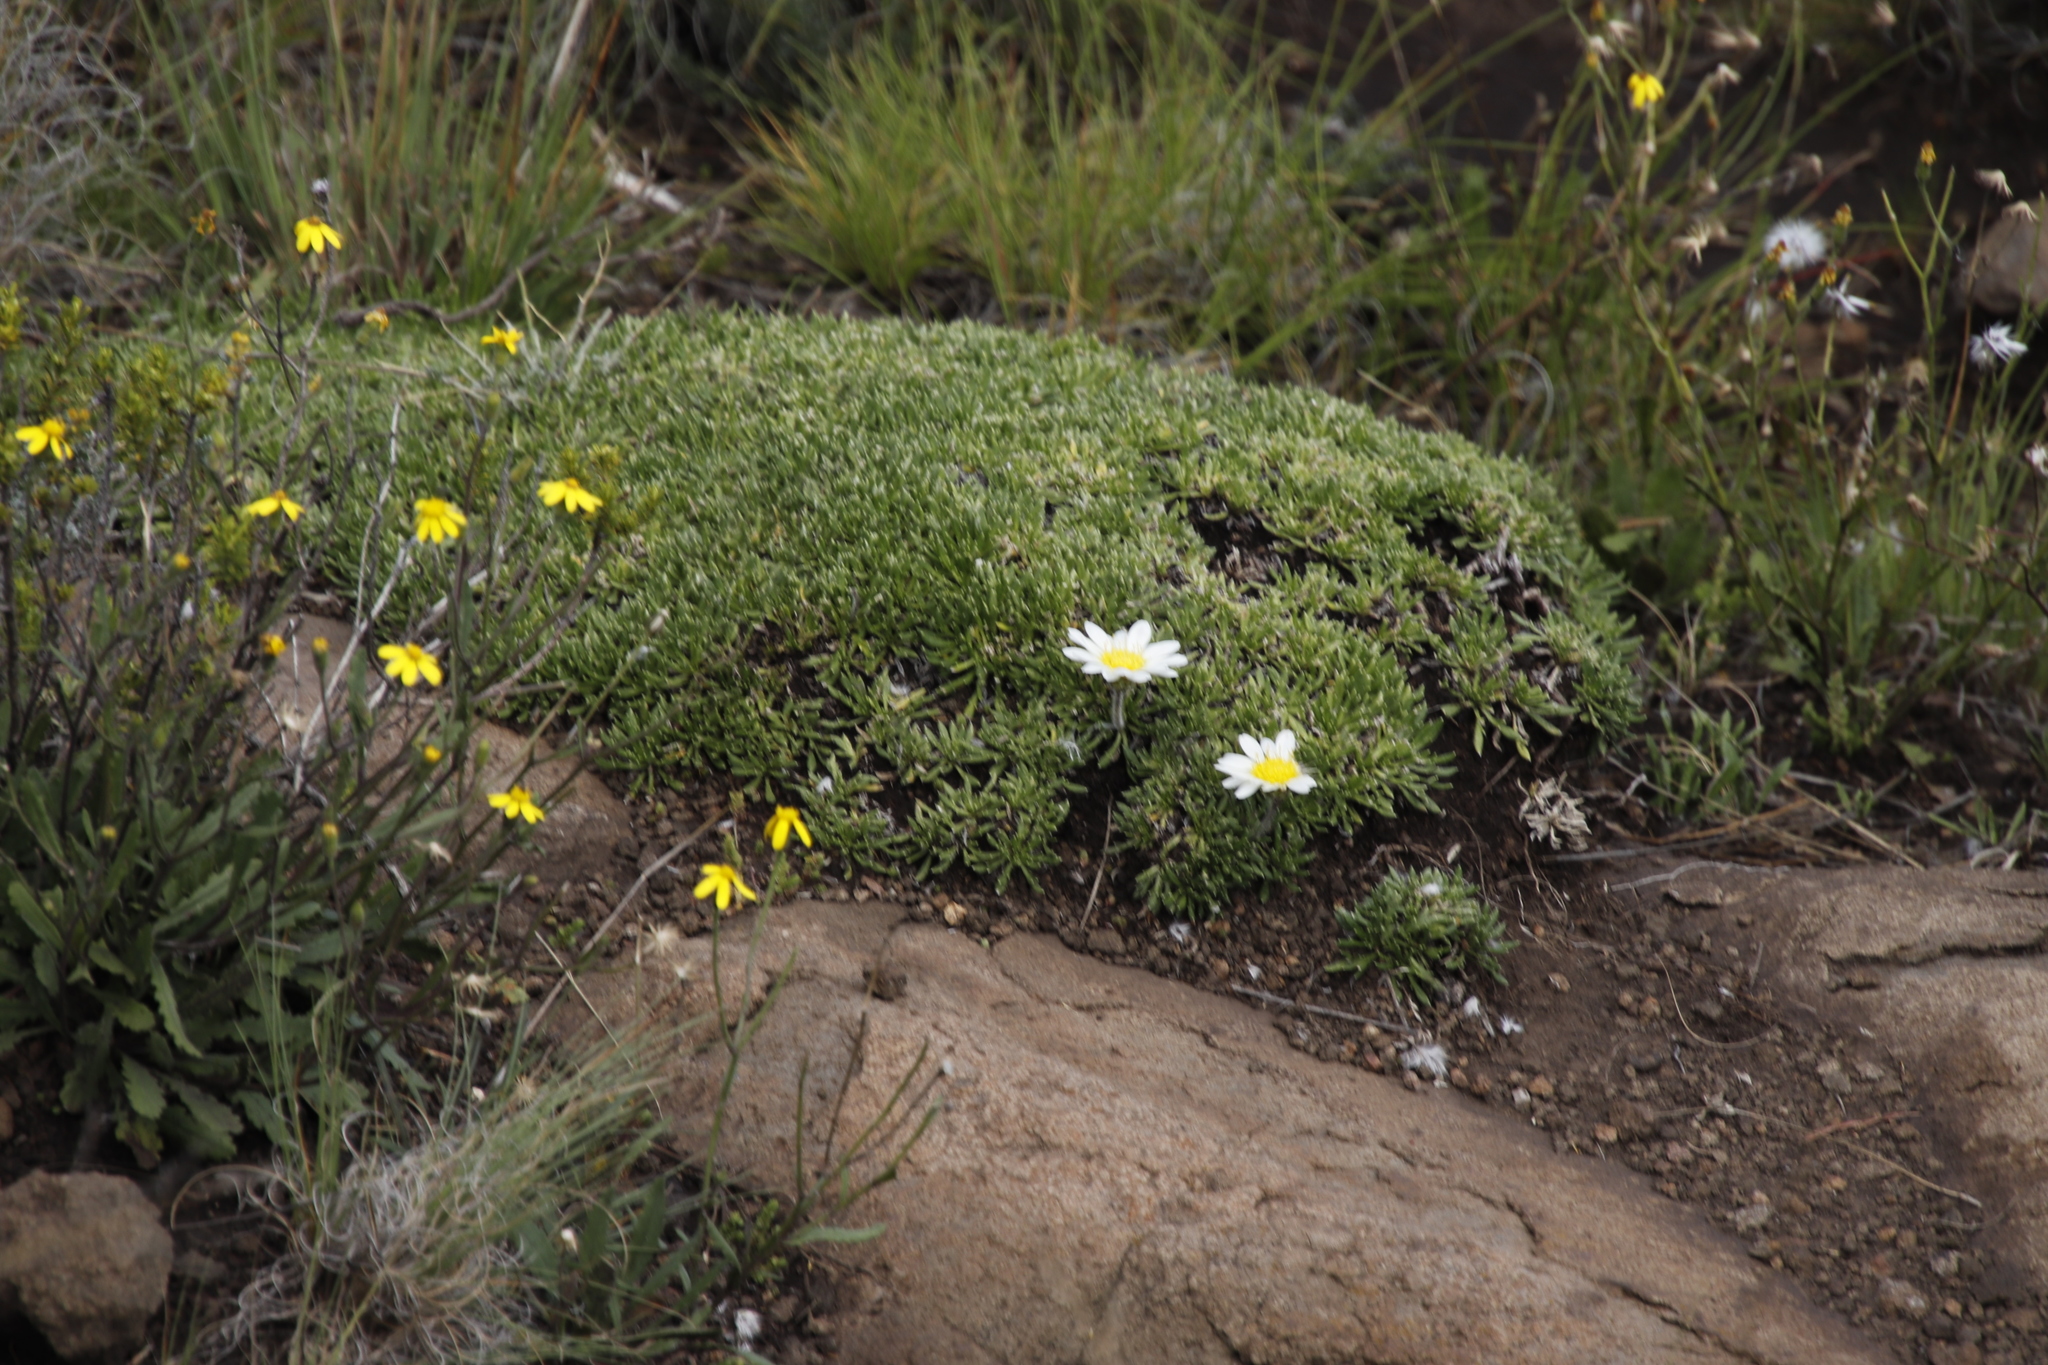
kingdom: Plantae
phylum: Tracheophyta
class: Magnoliopsida
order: Asterales
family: Asteraceae
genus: Roessleria
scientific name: Roessleria armerioides
